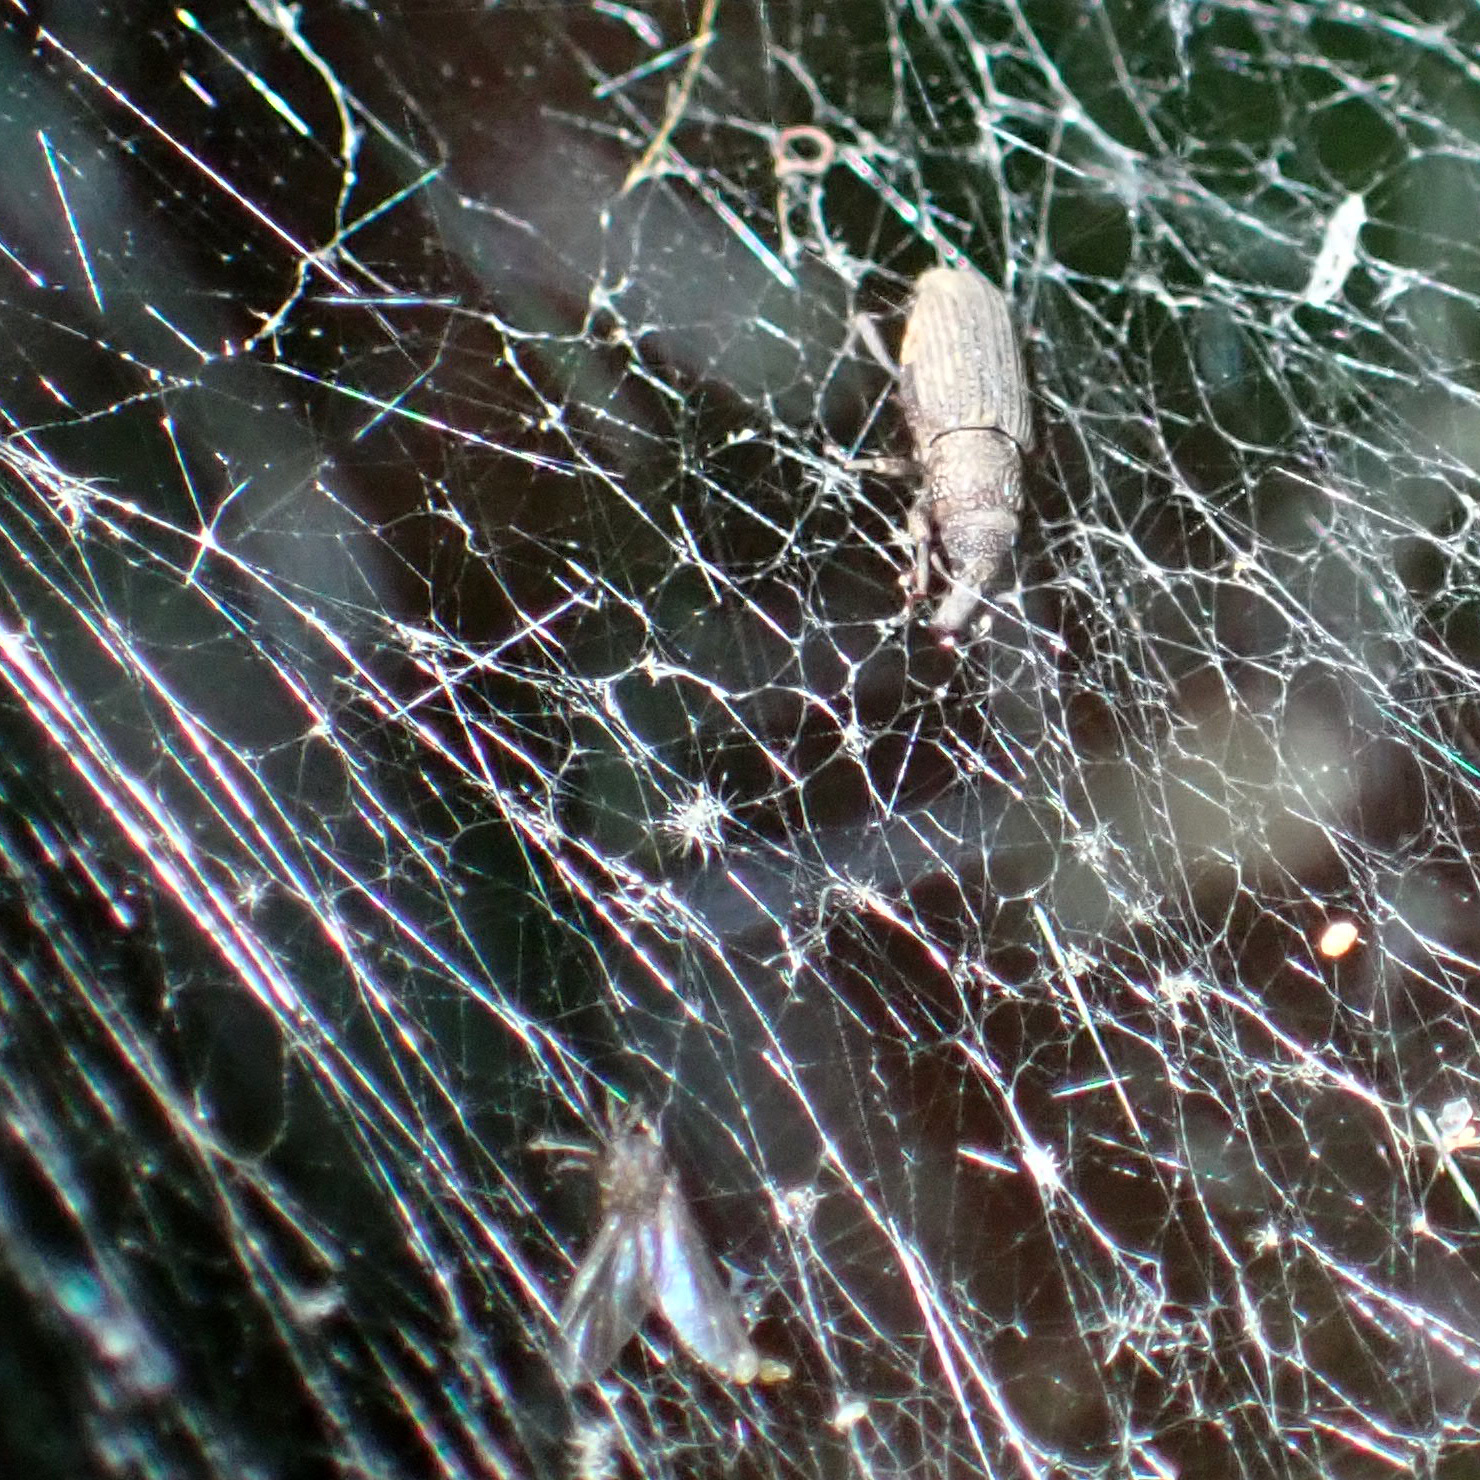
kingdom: Animalia
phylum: Arthropoda
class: Insecta
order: Coleoptera
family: Dryophthoridae
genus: Dryophthorus
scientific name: Dryophthorus americanus
